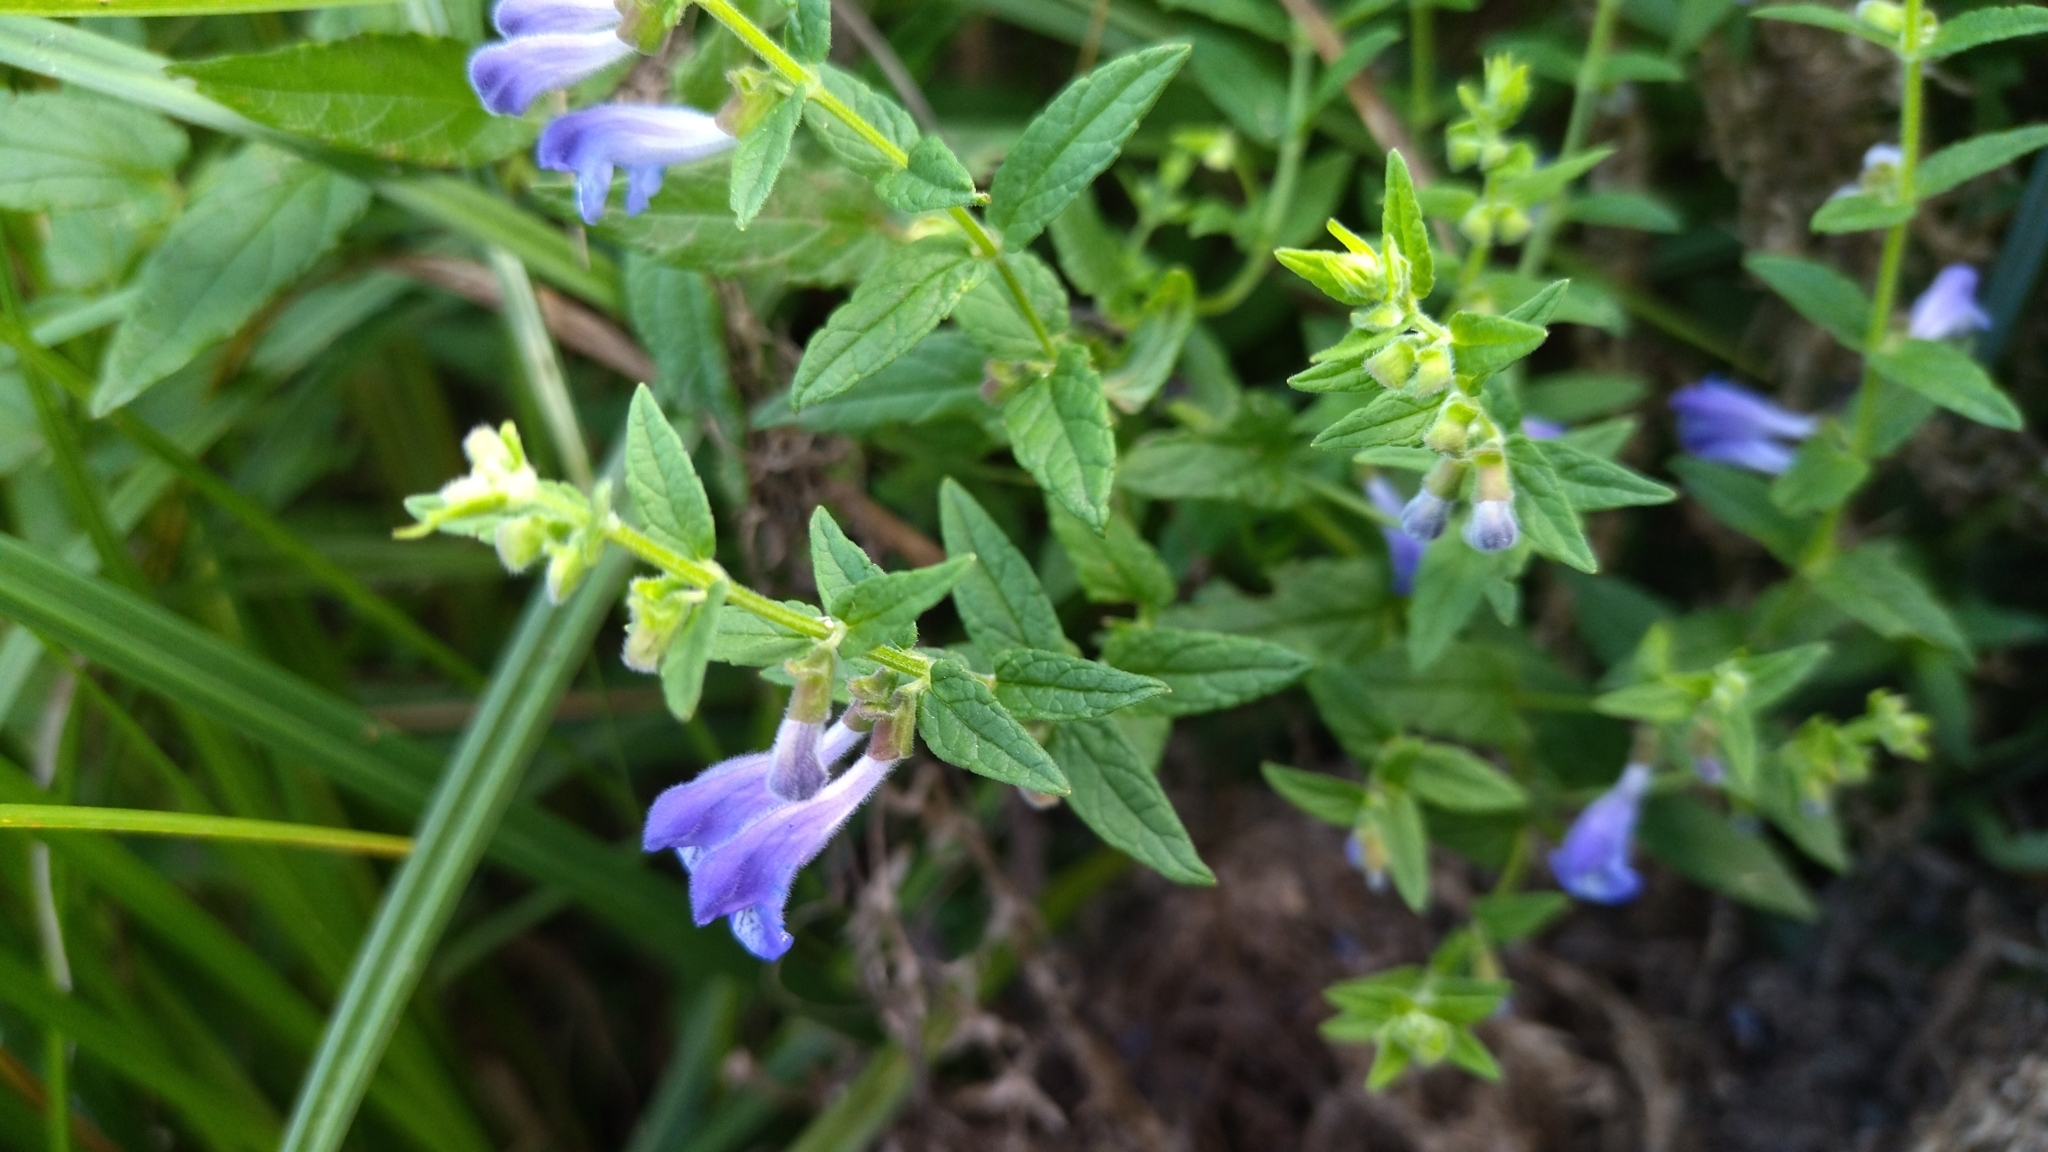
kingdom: Plantae
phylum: Tracheophyta
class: Magnoliopsida
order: Lamiales
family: Lamiaceae
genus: Scutellaria
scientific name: Scutellaria galericulata
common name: Skullcap
